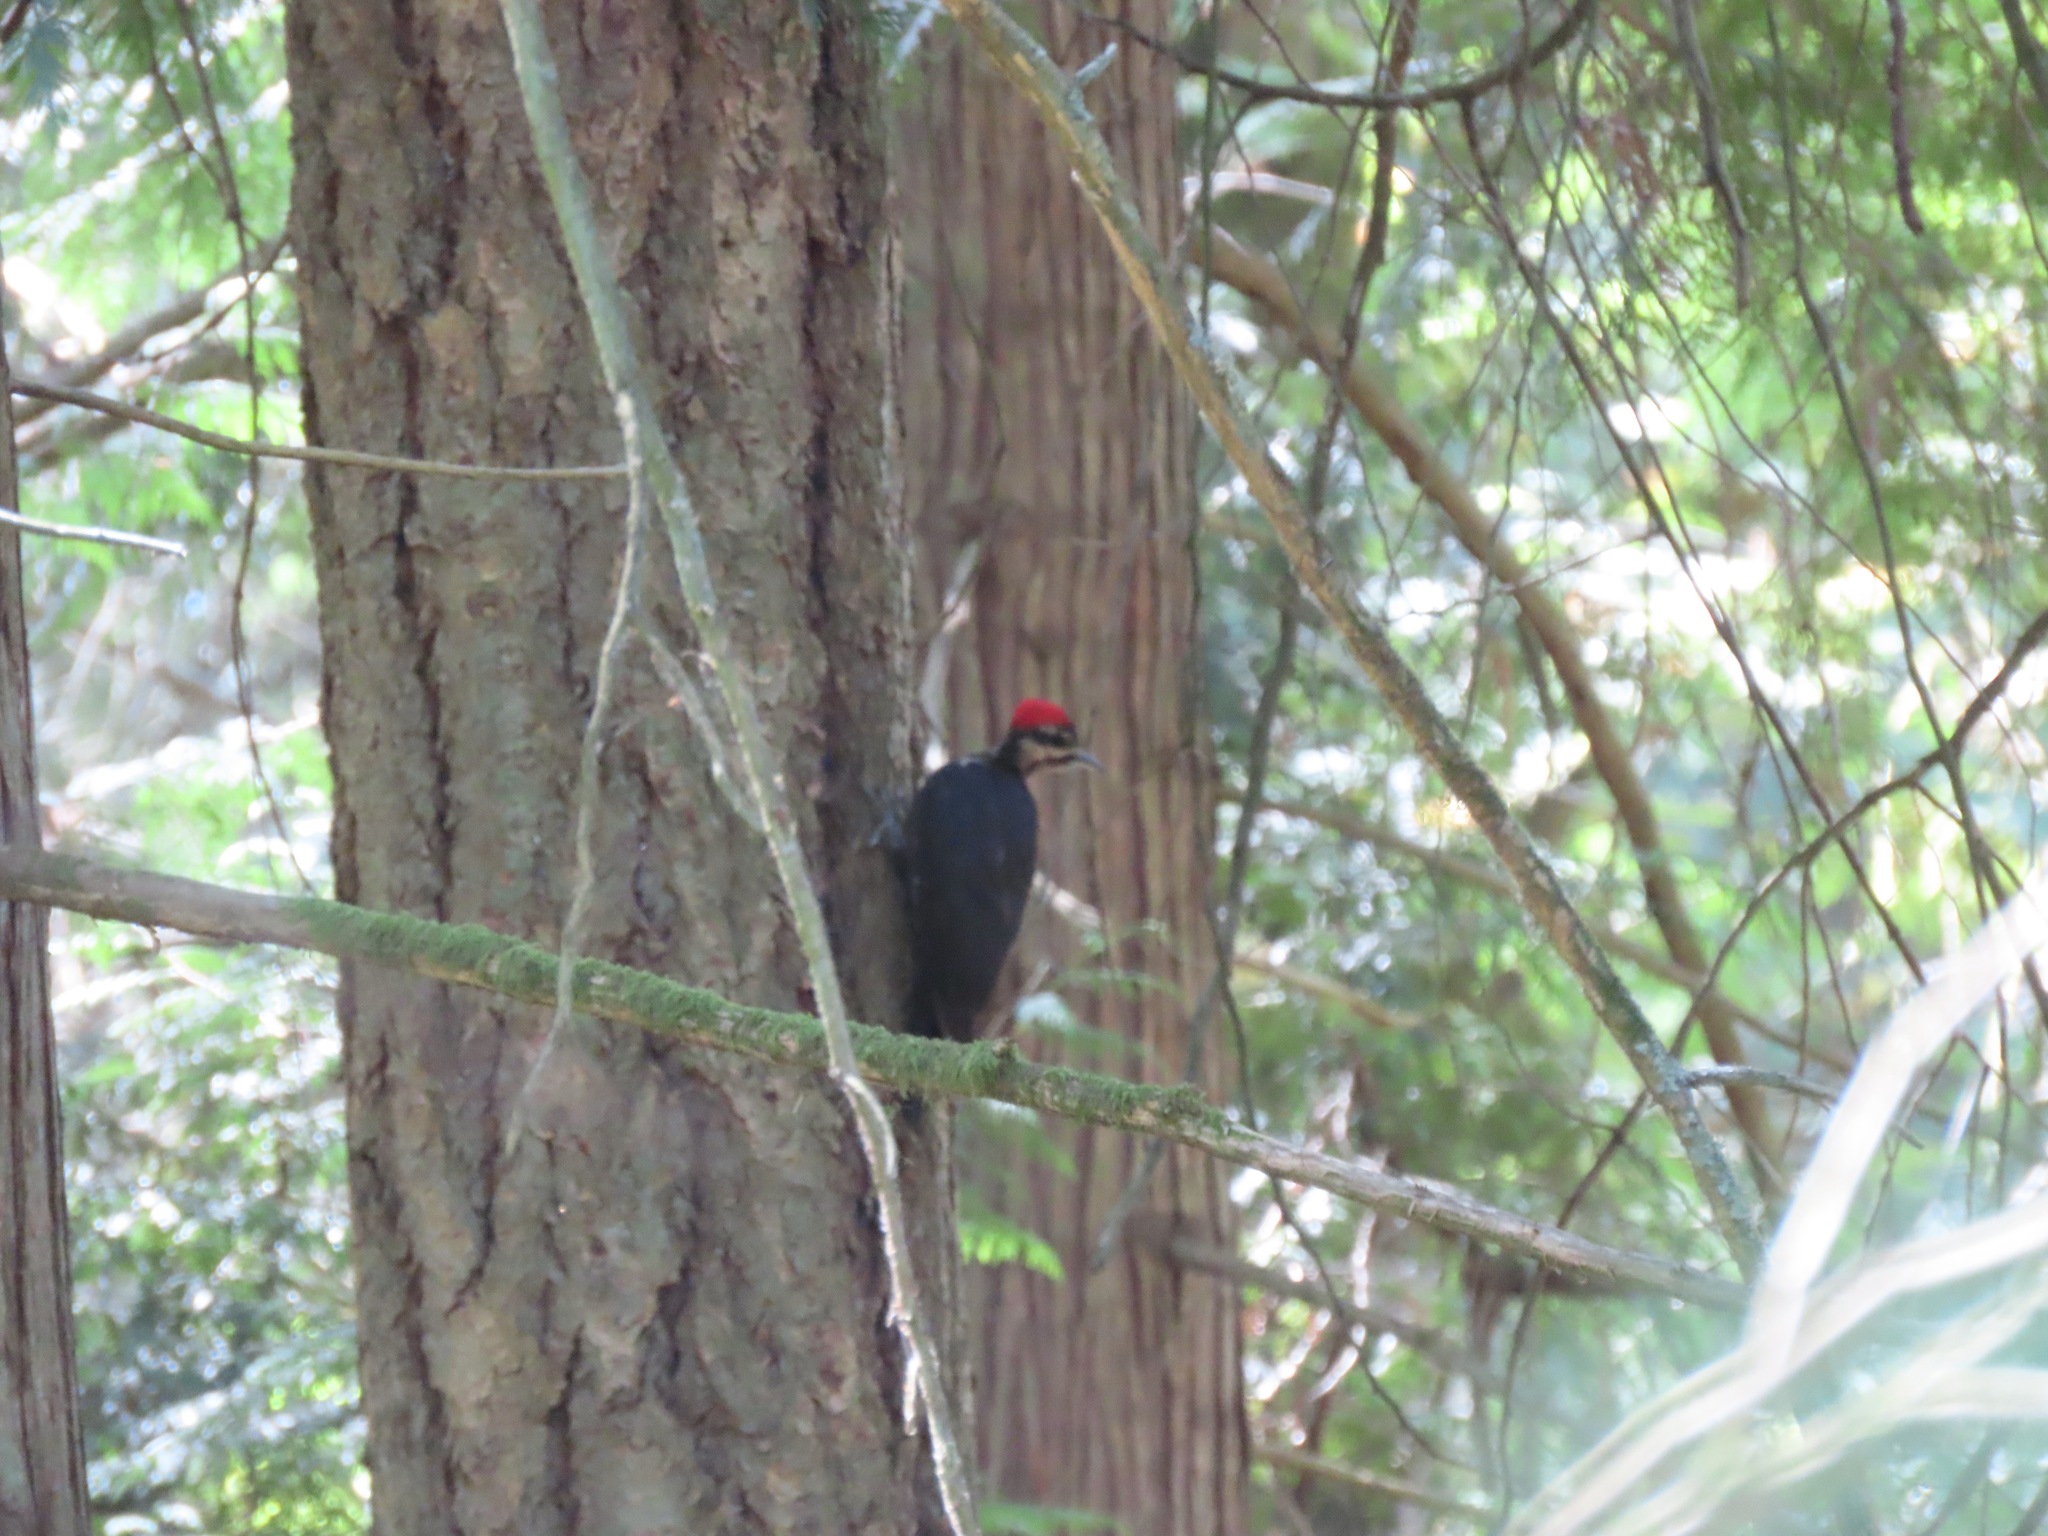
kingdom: Animalia
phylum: Chordata
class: Aves
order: Piciformes
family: Picidae
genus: Dryocopus
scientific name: Dryocopus pileatus
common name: Pileated woodpecker
